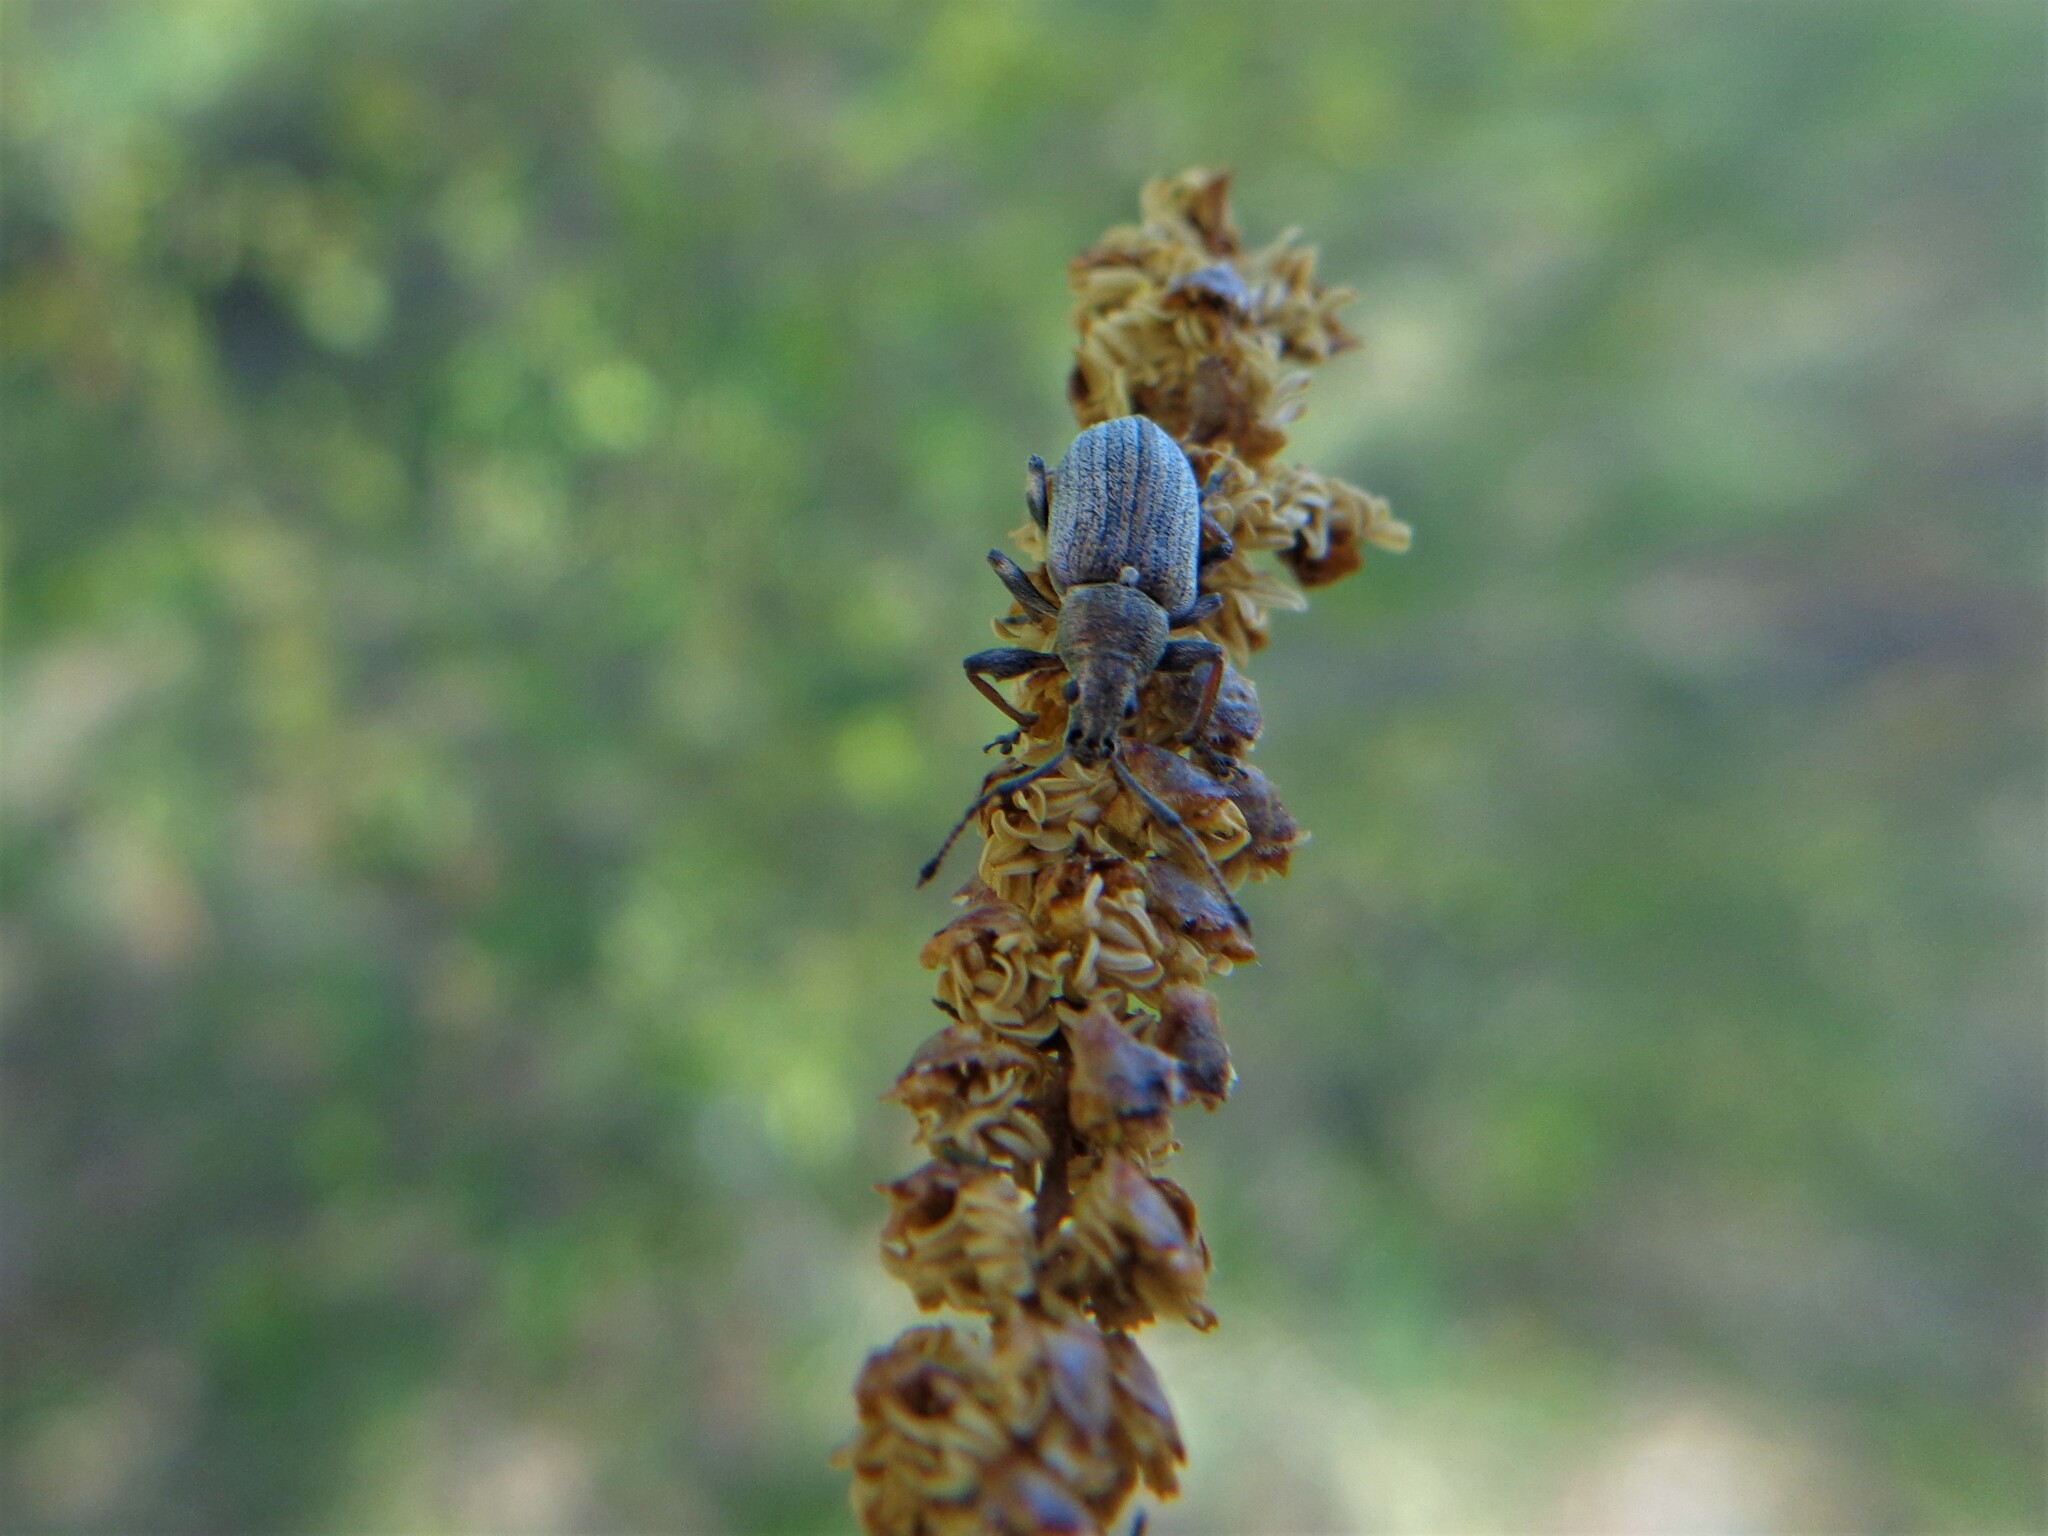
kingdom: Animalia
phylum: Arthropoda
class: Insecta
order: Coleoptera
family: Curculionidae
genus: Phyllobius
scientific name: Phyllobius pyri
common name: Common leaf weevil
